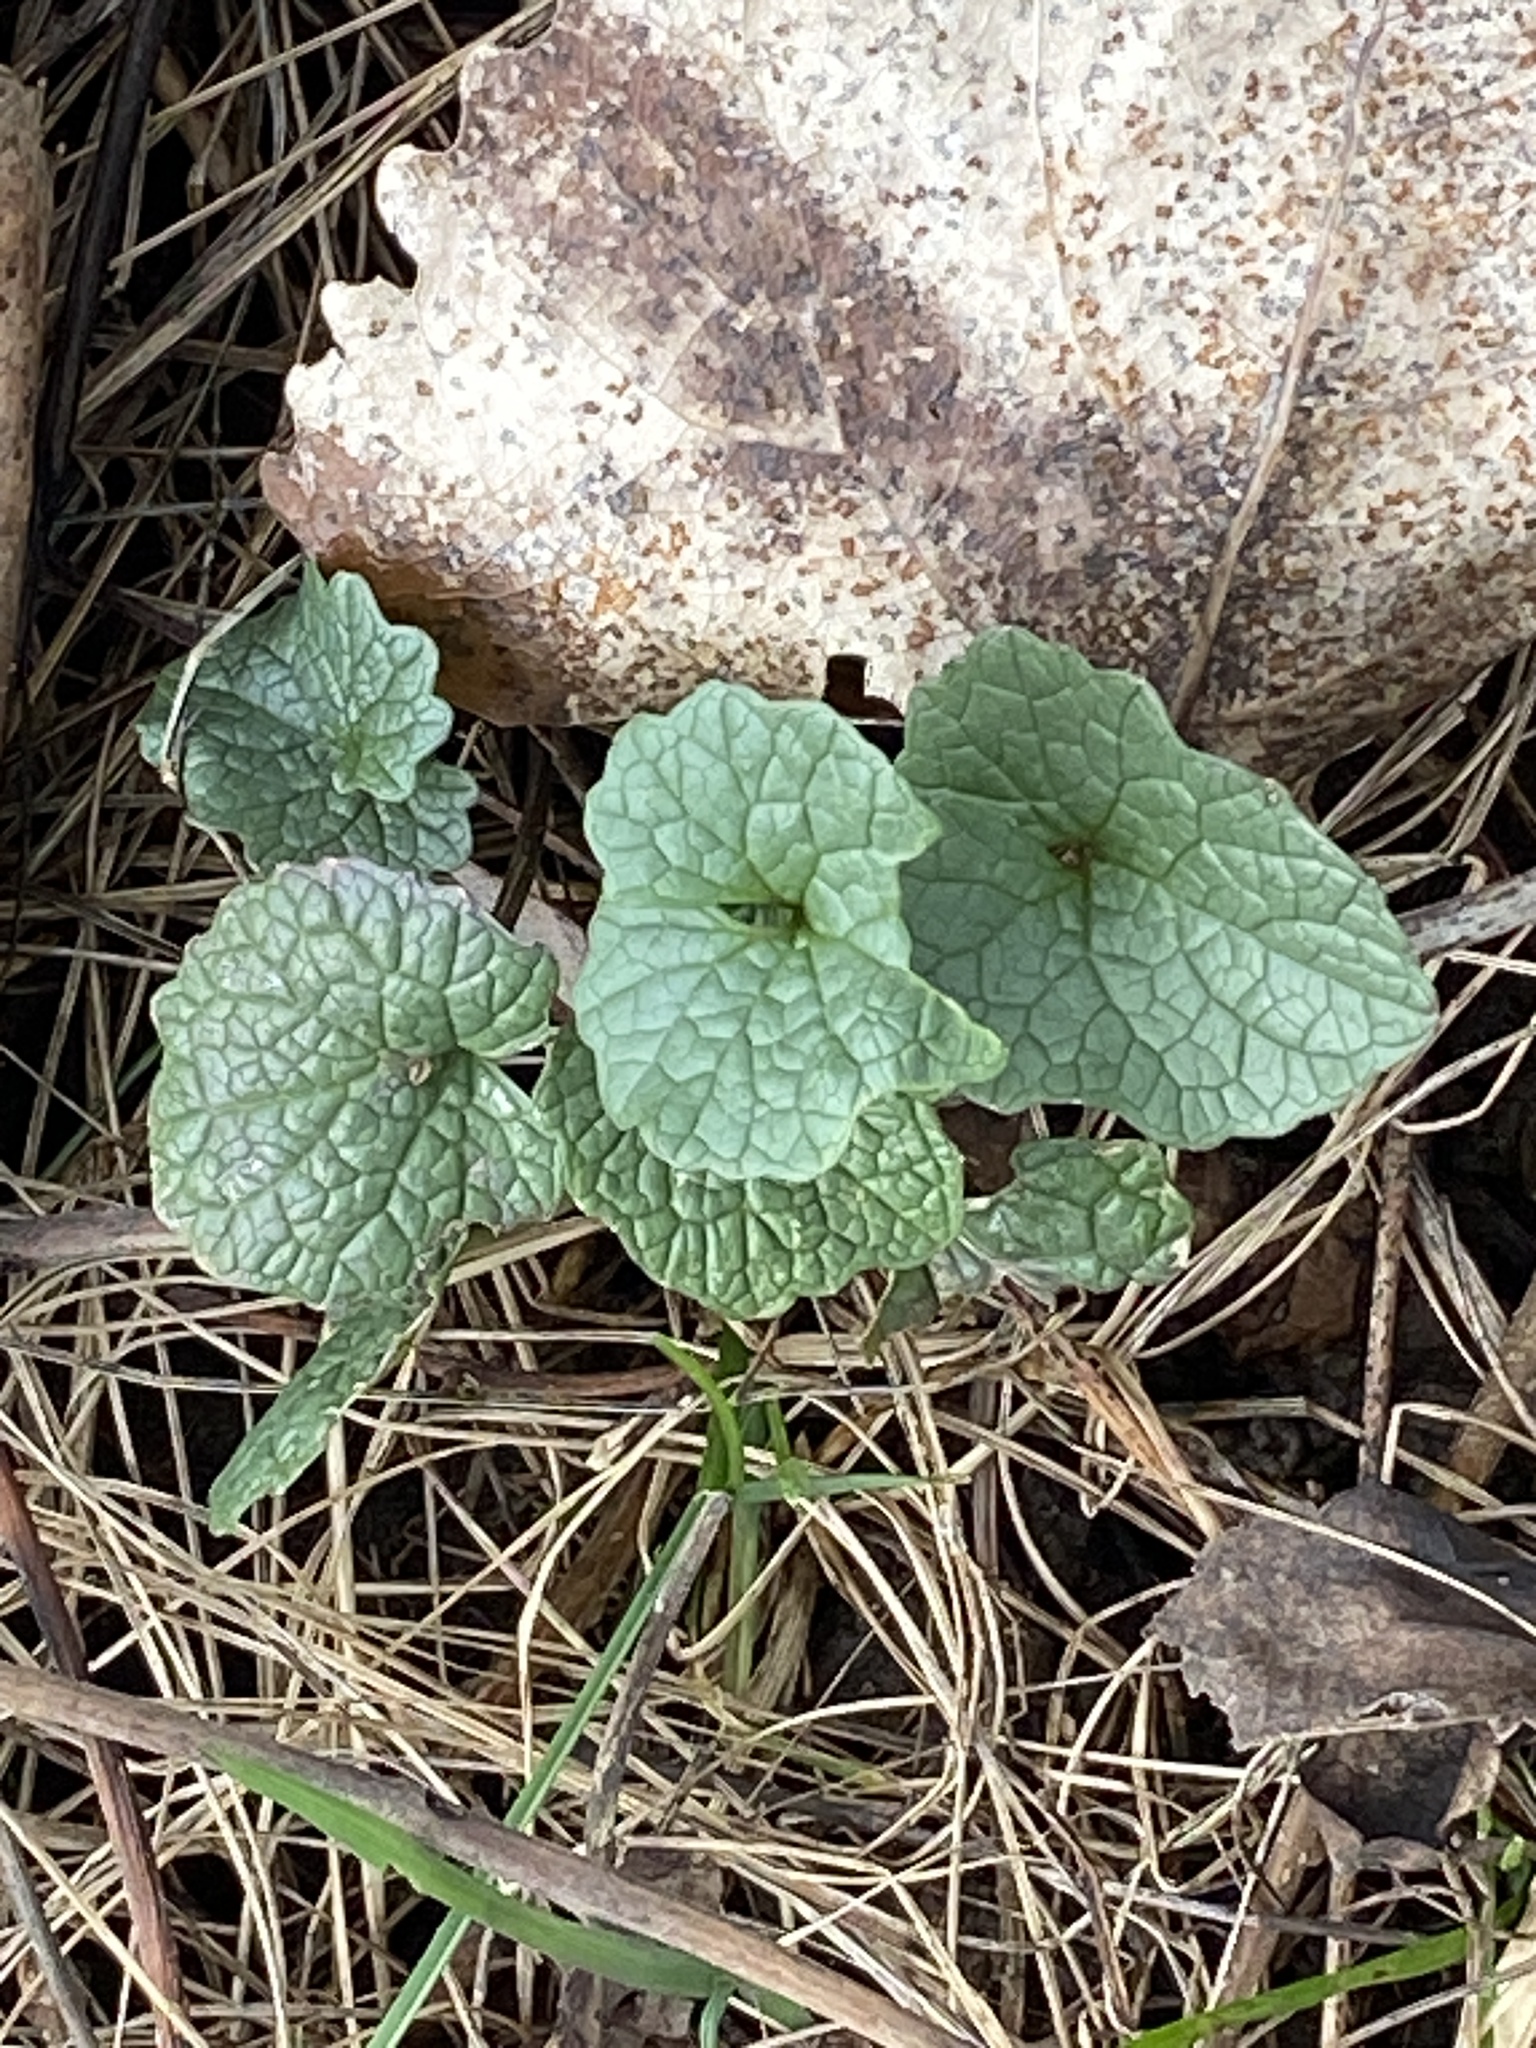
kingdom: Plantae
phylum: Tracheophyta
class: Magnoliopsida
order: Brassicales
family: Brassicaceae
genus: Alliaria
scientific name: Alliaria petiolata
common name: Garlic mustard
